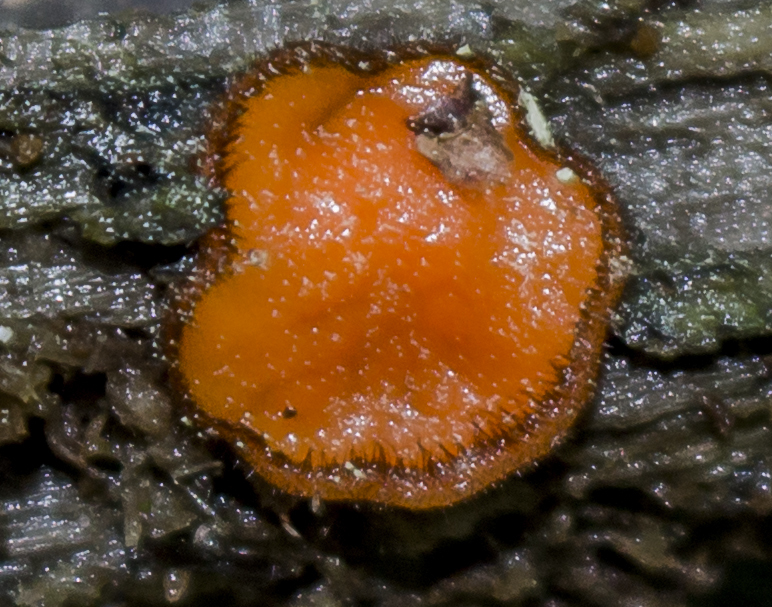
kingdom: Fungi
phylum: Ascomycota
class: Pezizomycetes
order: Pezizales
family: Pyronemataceae
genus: Scutellinia
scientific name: Scutellinia
